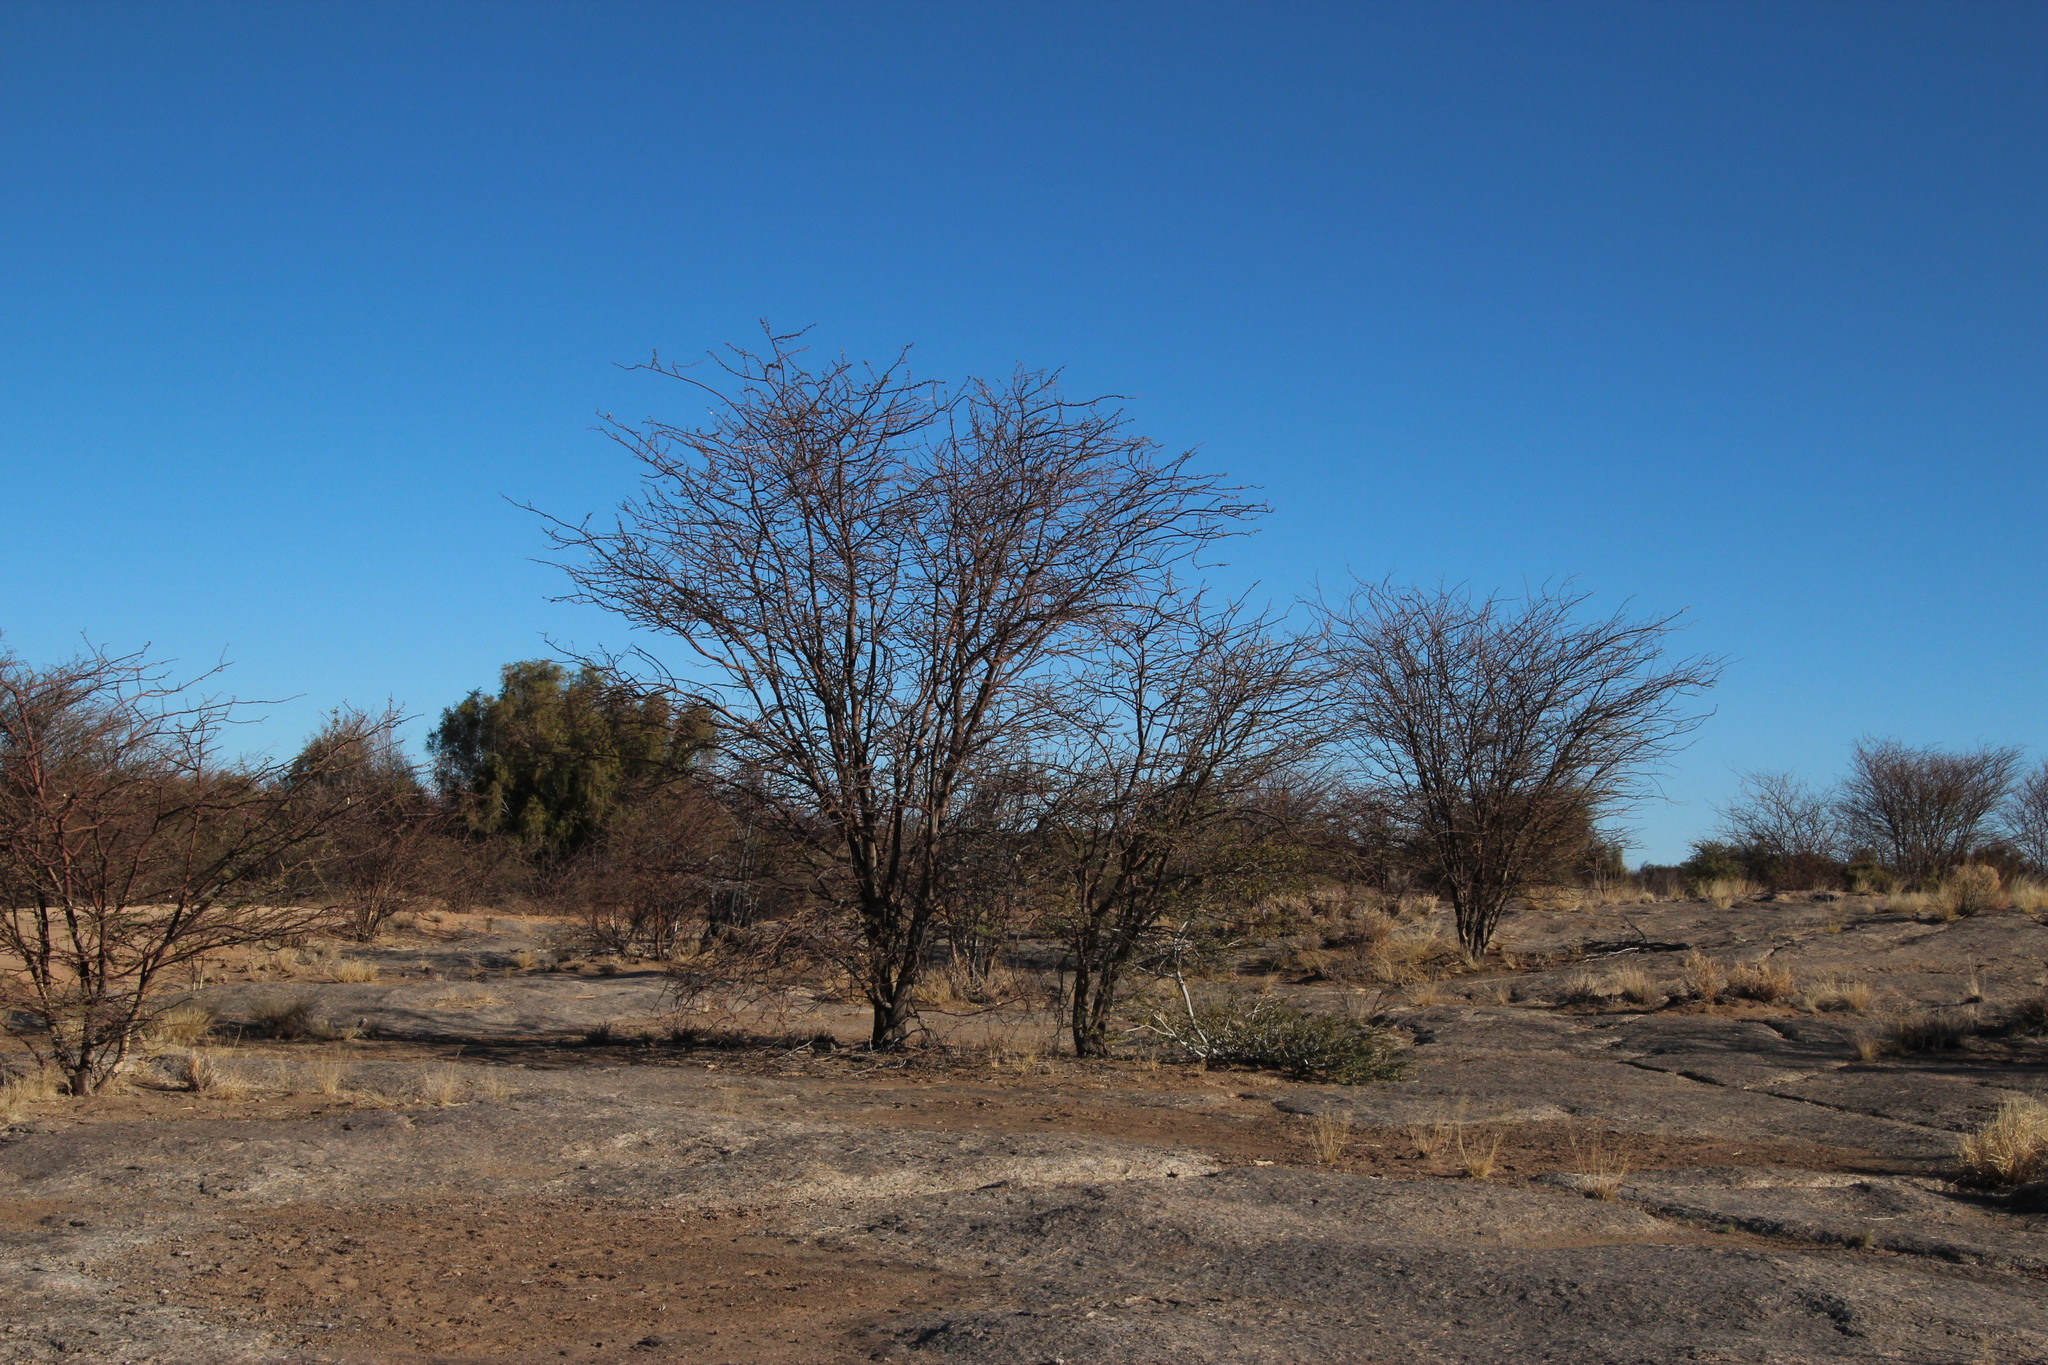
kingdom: Plantae
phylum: Tracheophyta
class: Magnoliopsida
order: Fabales
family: Fabaceae
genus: Senegalia
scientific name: Senegalia mellifera
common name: Hookthorn
